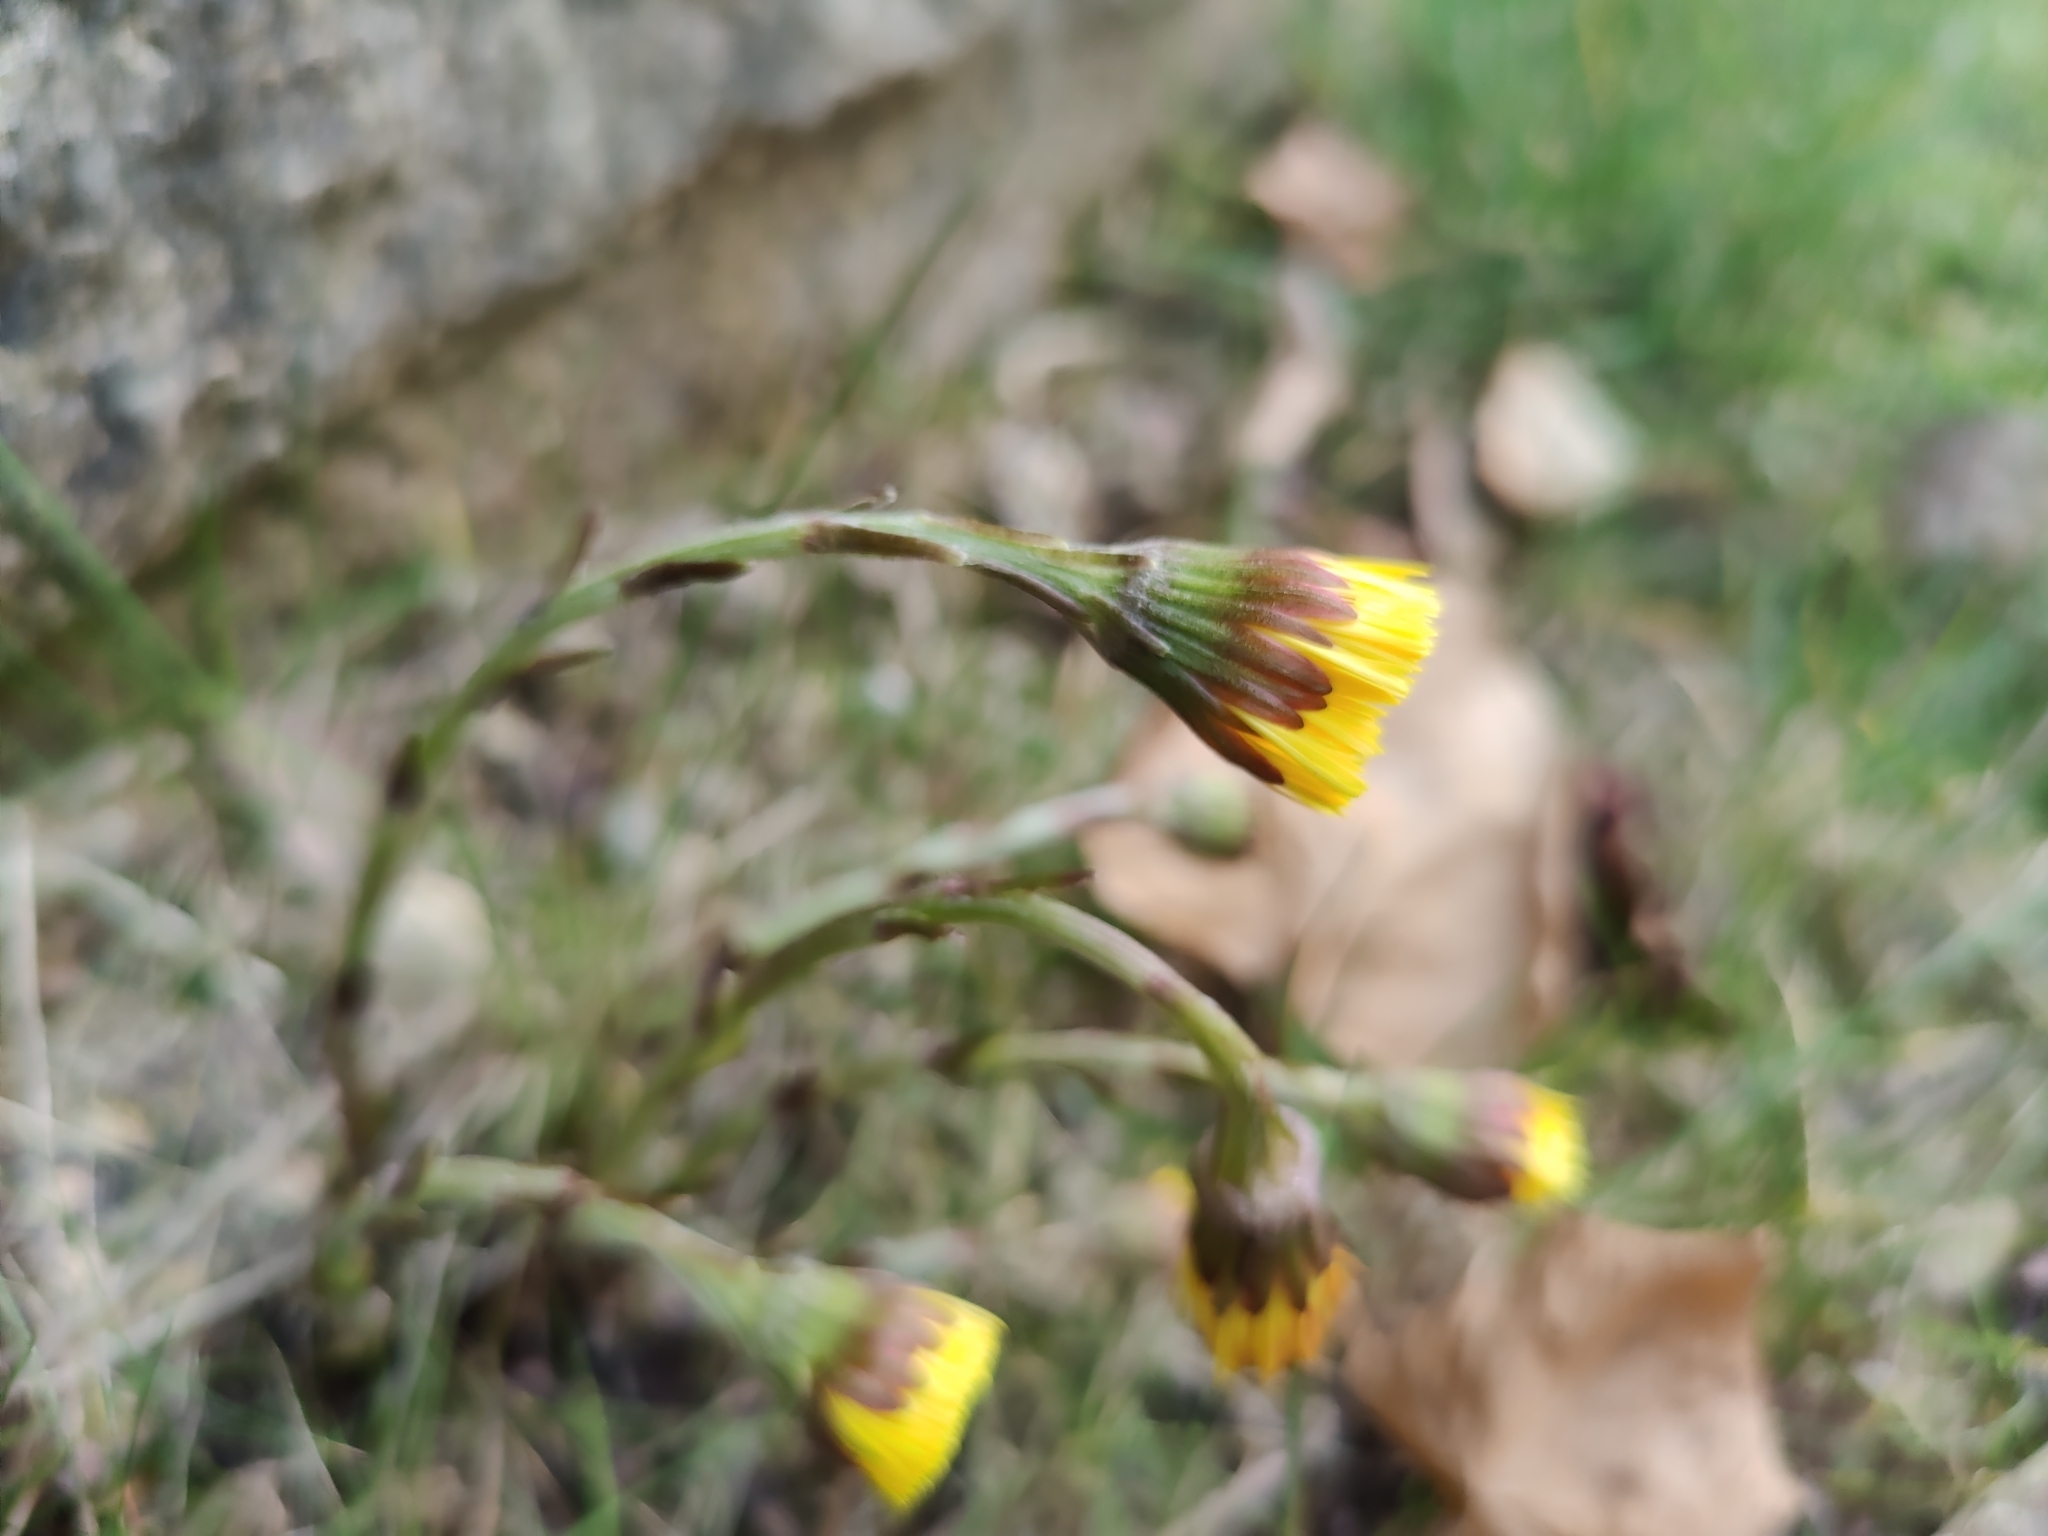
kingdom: Plantae
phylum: Tracheophyta
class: Magnoliopsida
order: Asterales
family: Asteraceae
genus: Tussilago
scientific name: Tussilago farfara
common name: Coltsfoot
